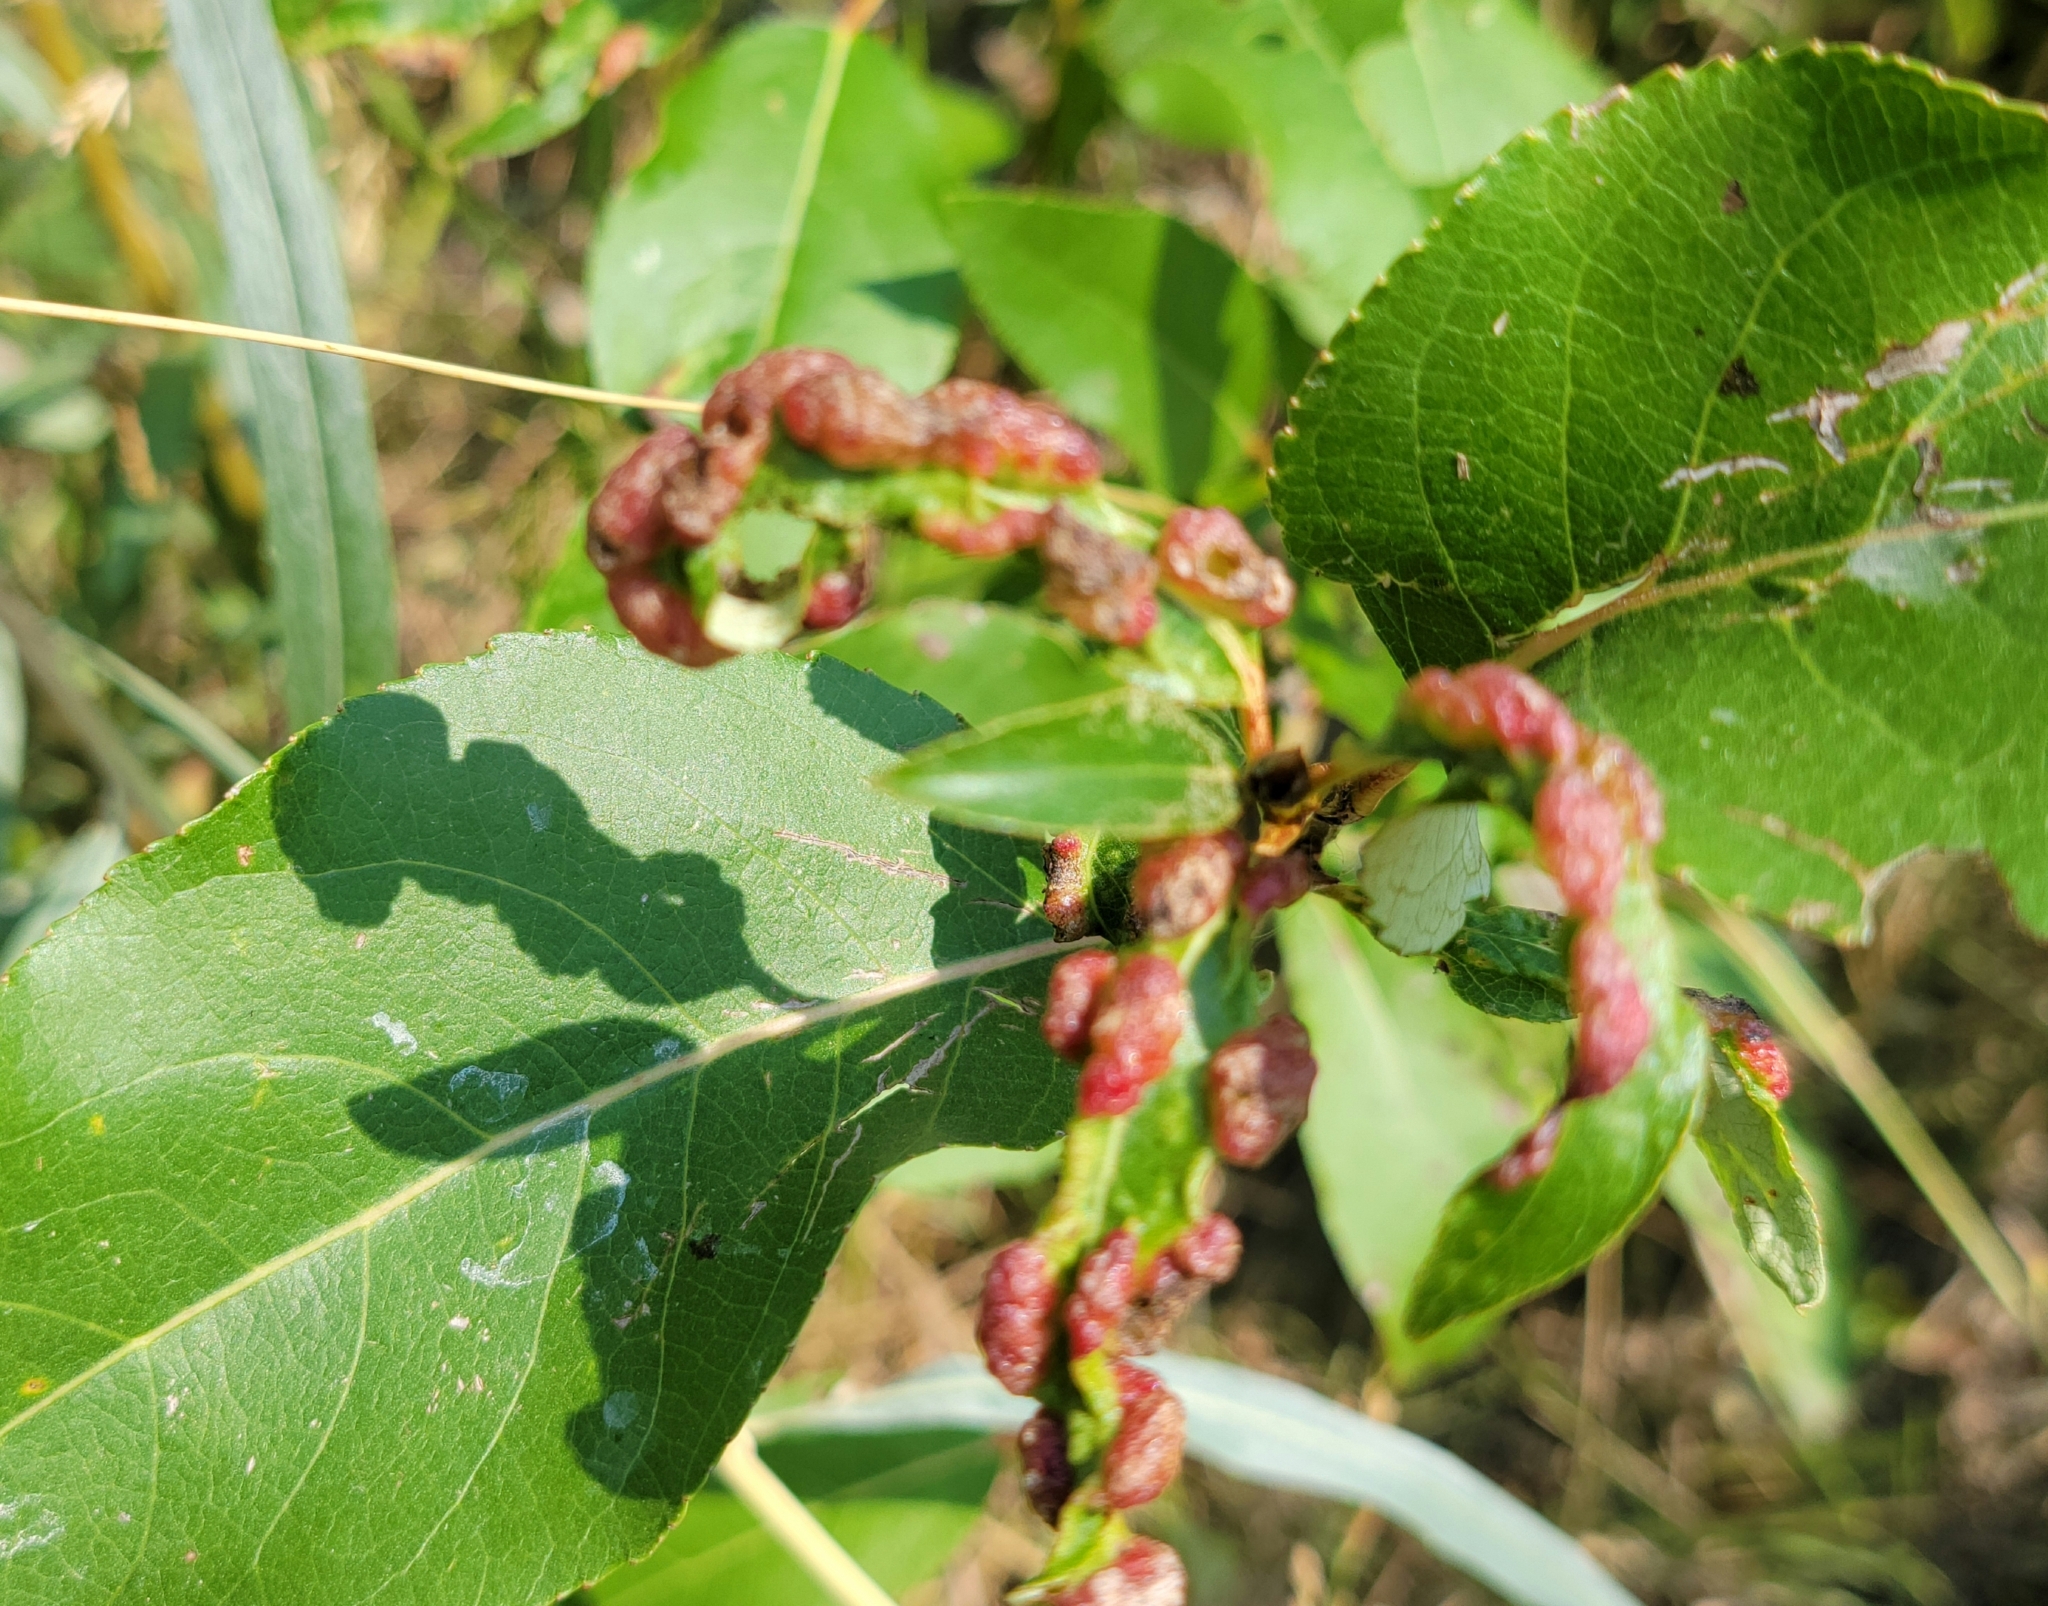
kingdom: Animalia
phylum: Arthropoda
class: Insecta
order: Hemiptera
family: Aphididae
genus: Thecabius
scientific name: Thecabius populimonilis
